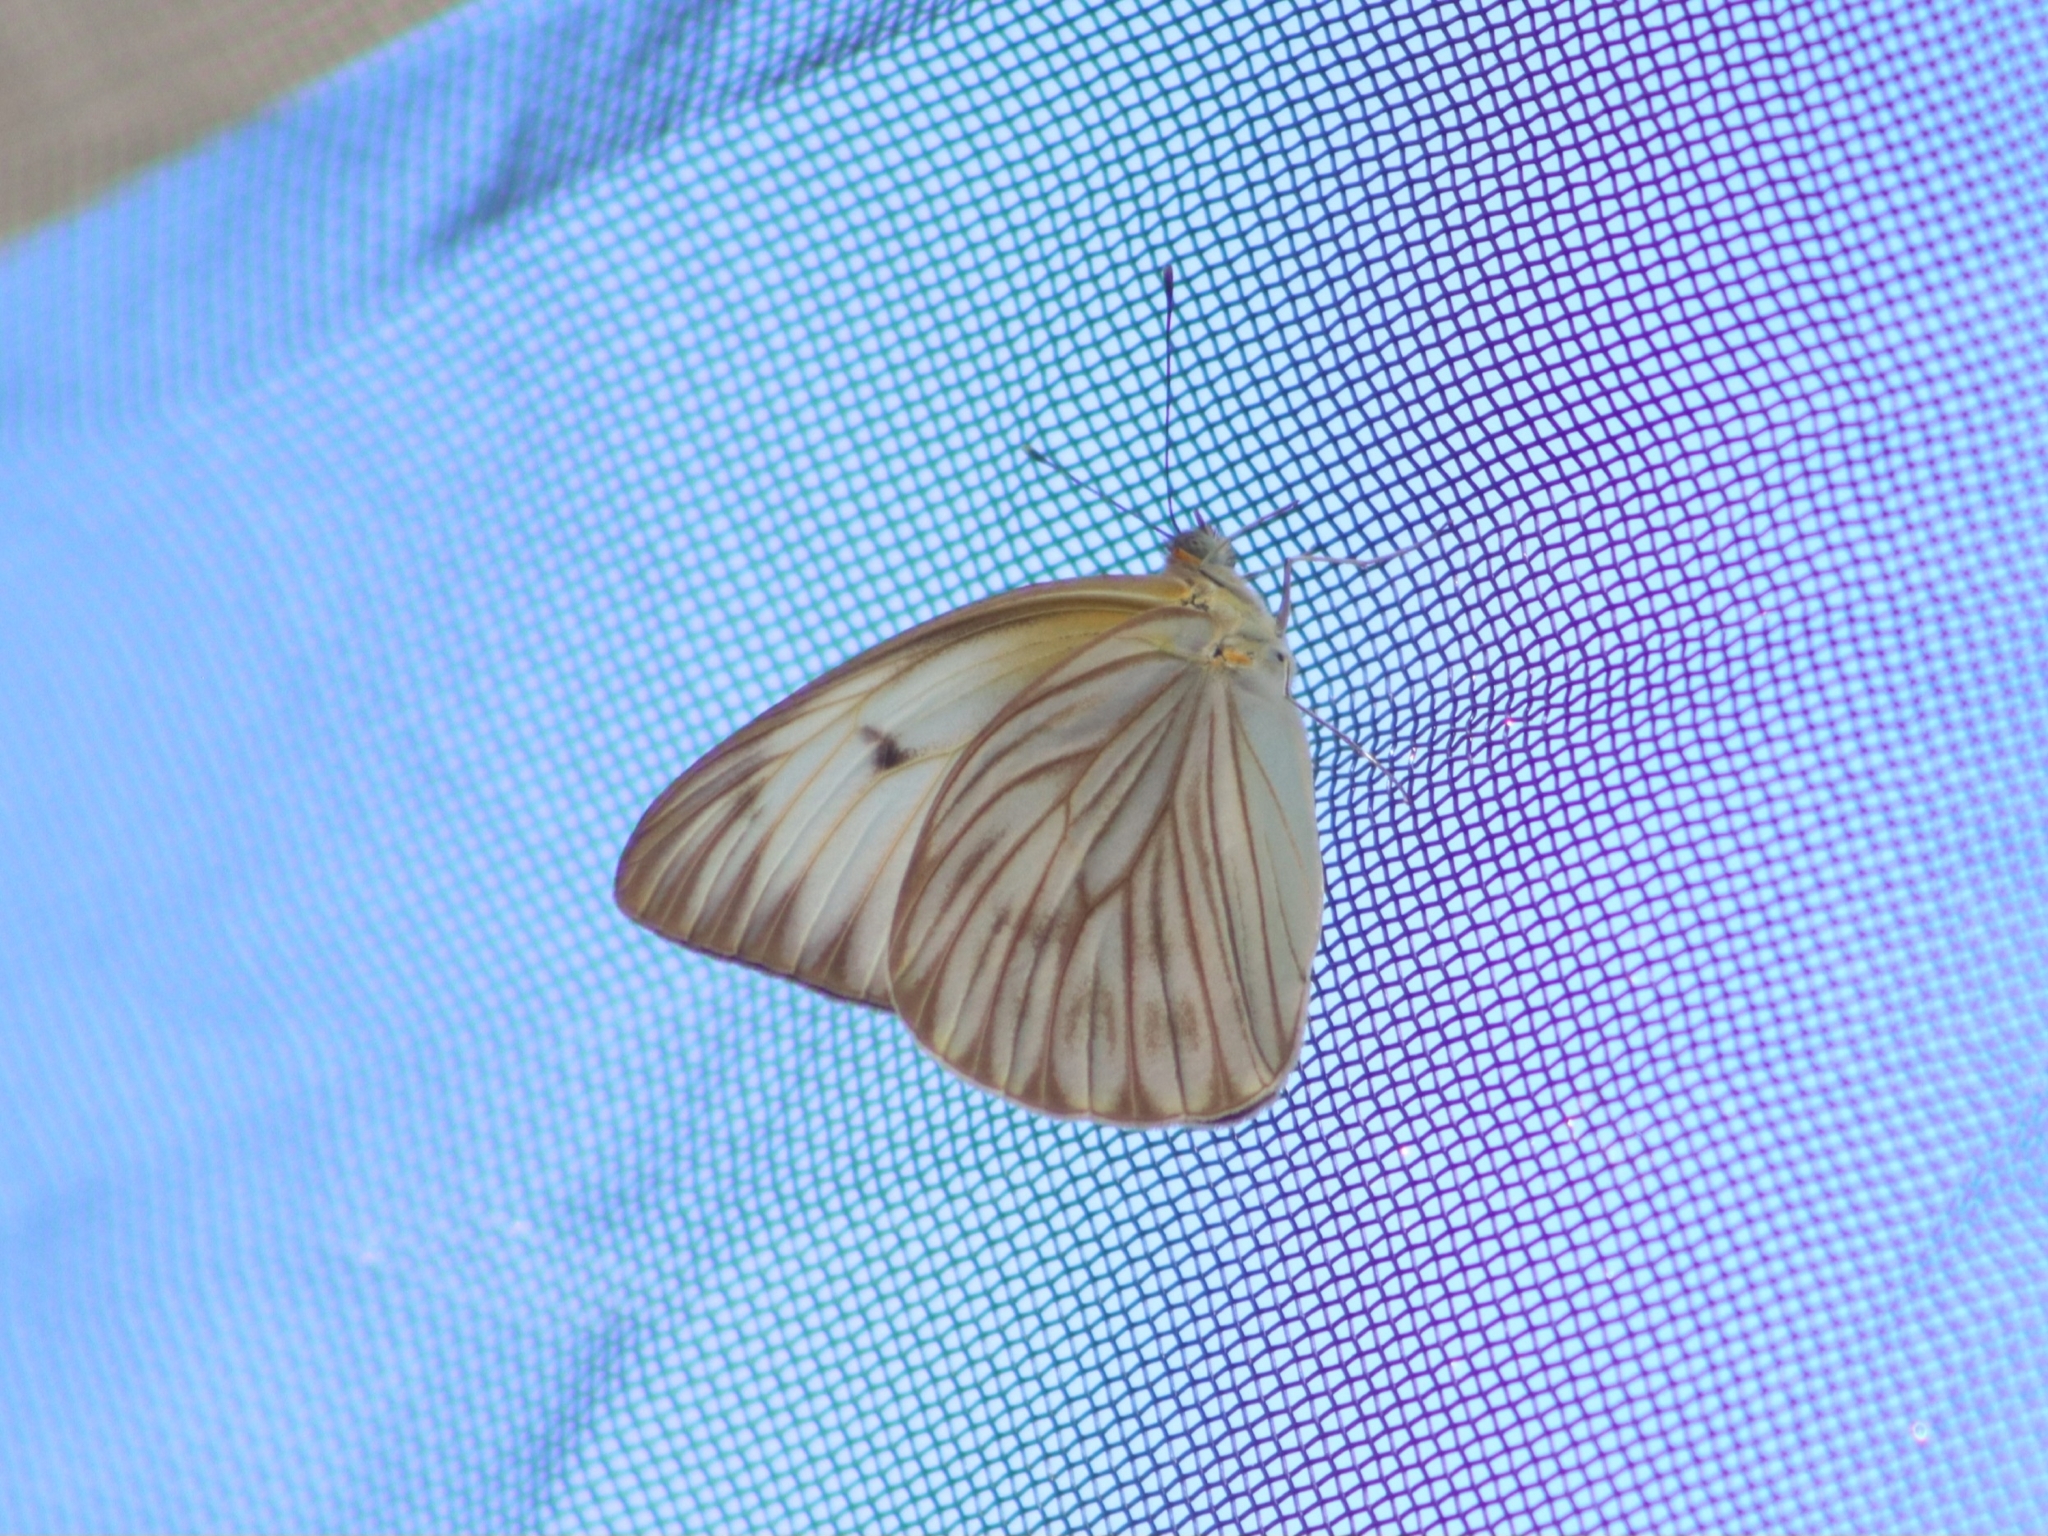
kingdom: Animalia
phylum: Arthropoda
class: Insecta
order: Lepidoptera
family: Pieridae
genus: Ascia
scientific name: Ascia monuste
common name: Great southern white
